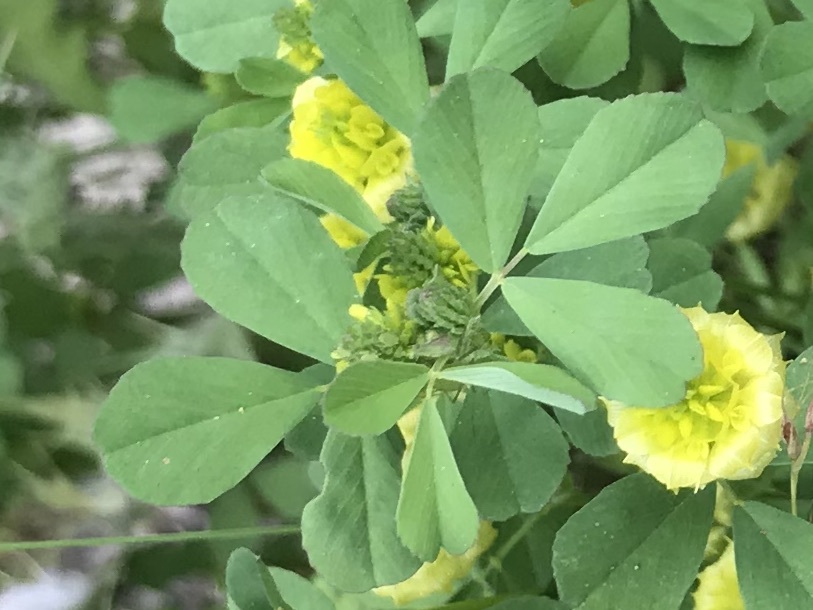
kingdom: Plantae
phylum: Tracheophyta
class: Magnoliopsida
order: Fabales
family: Fabaceae
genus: Trifolium
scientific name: Trifolium campestre
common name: Field clover
